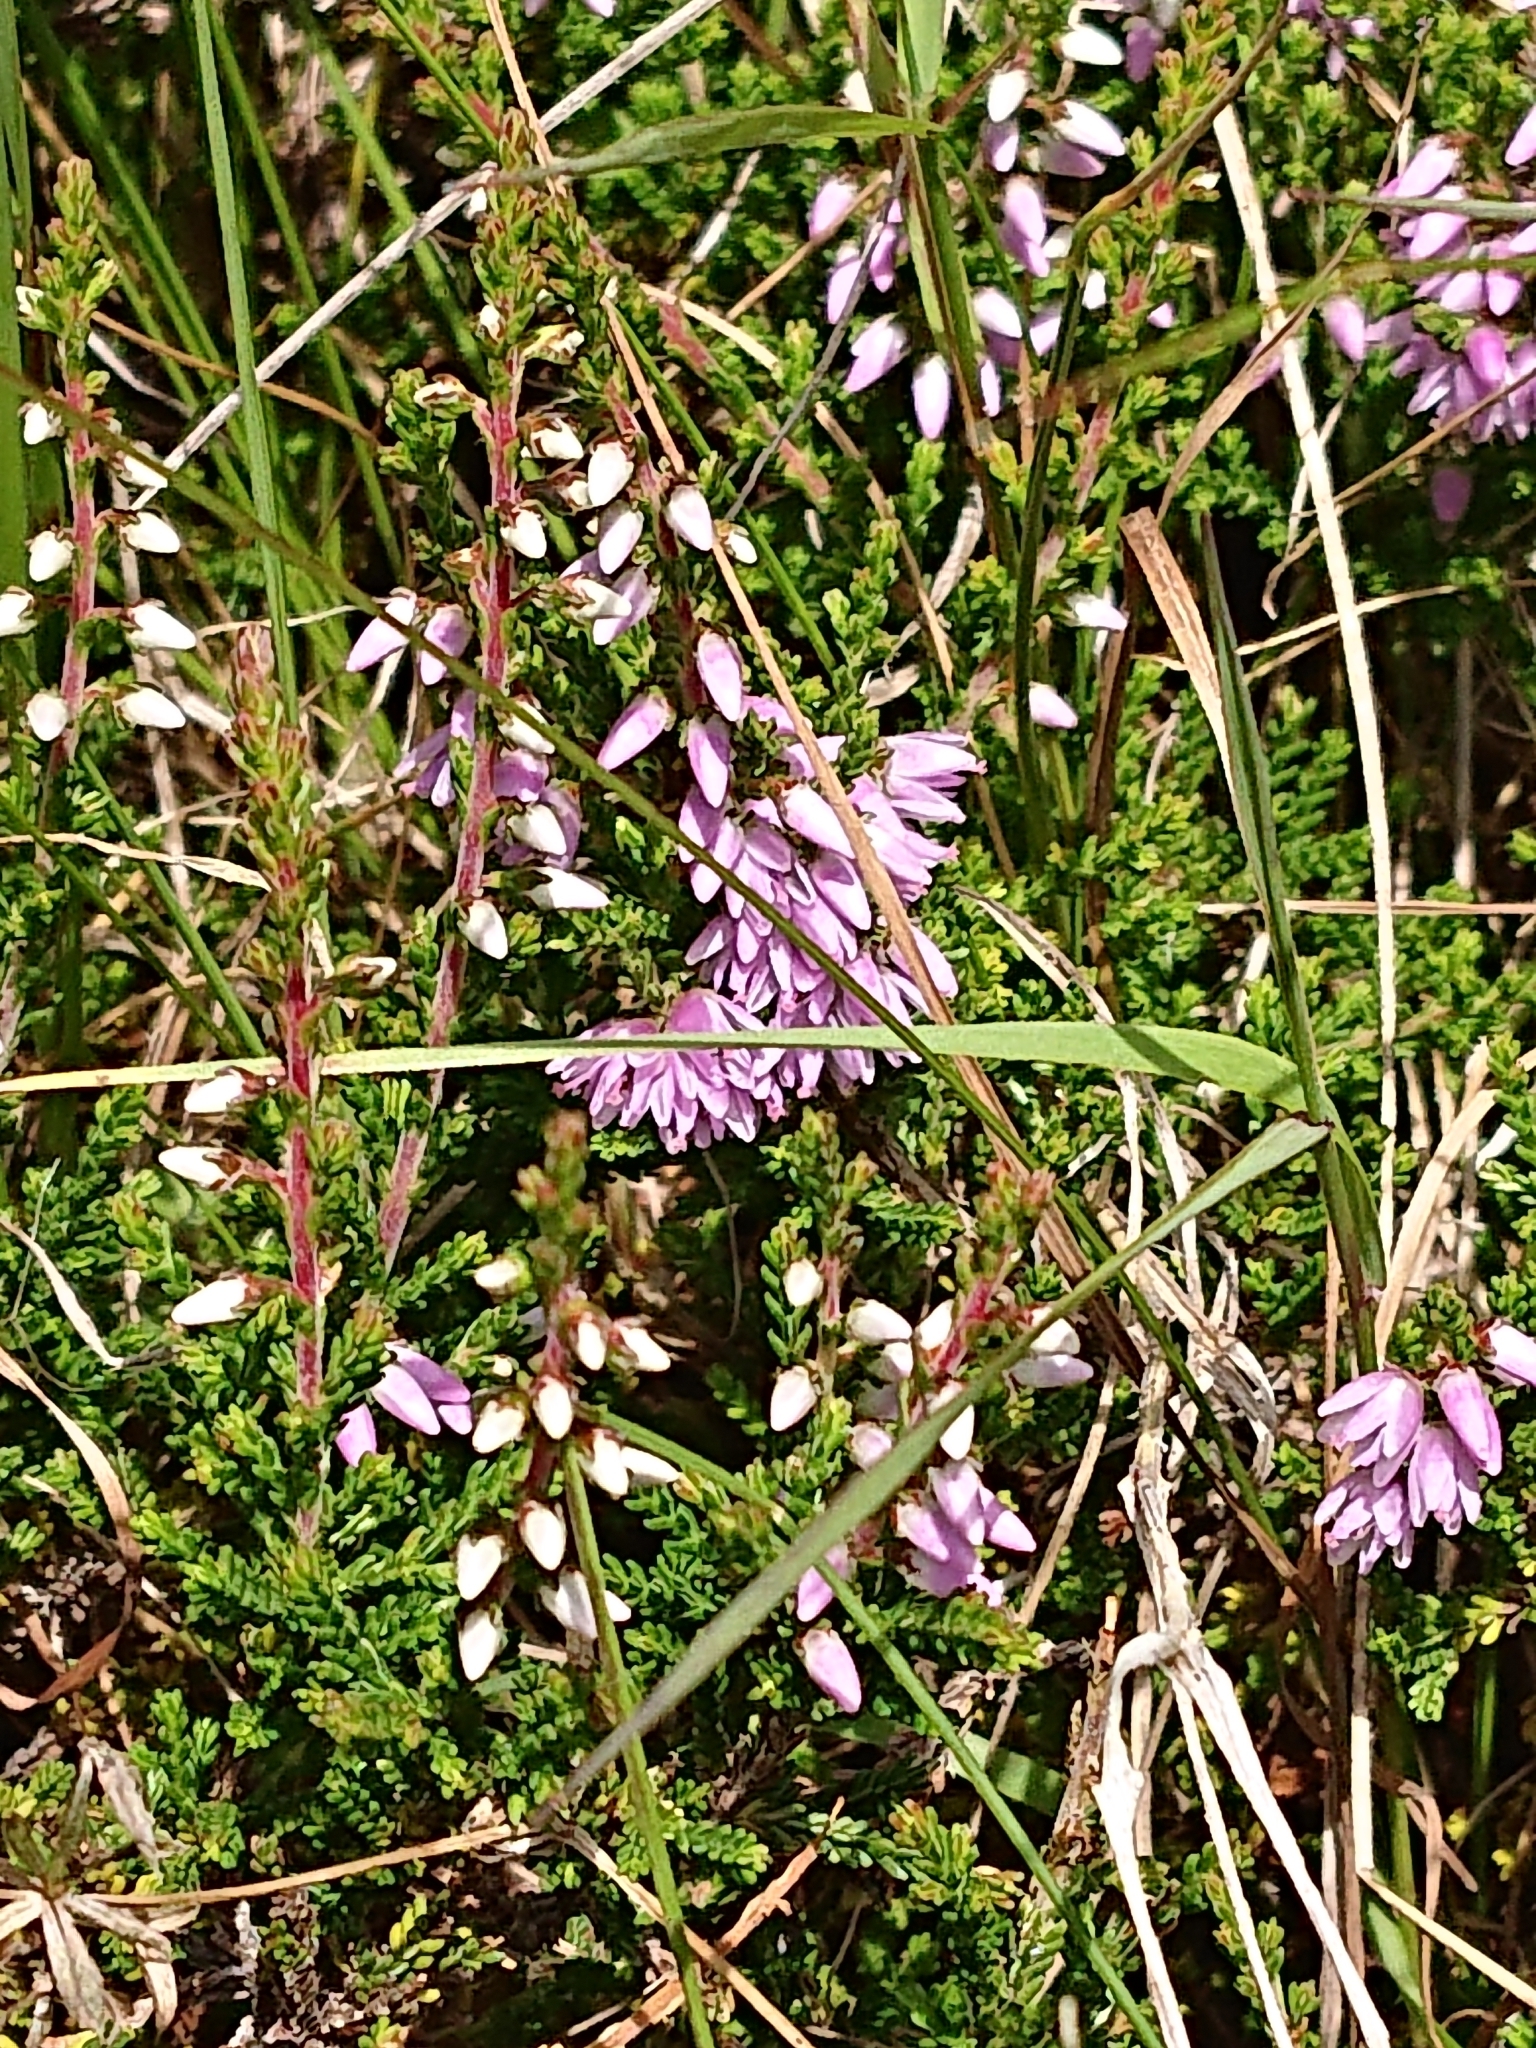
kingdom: Plantae
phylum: Tracheophyta
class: Magnoliopsida
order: Ericales
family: Ericaceae
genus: Calluna
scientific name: Calluna vulgaris
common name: Heather
